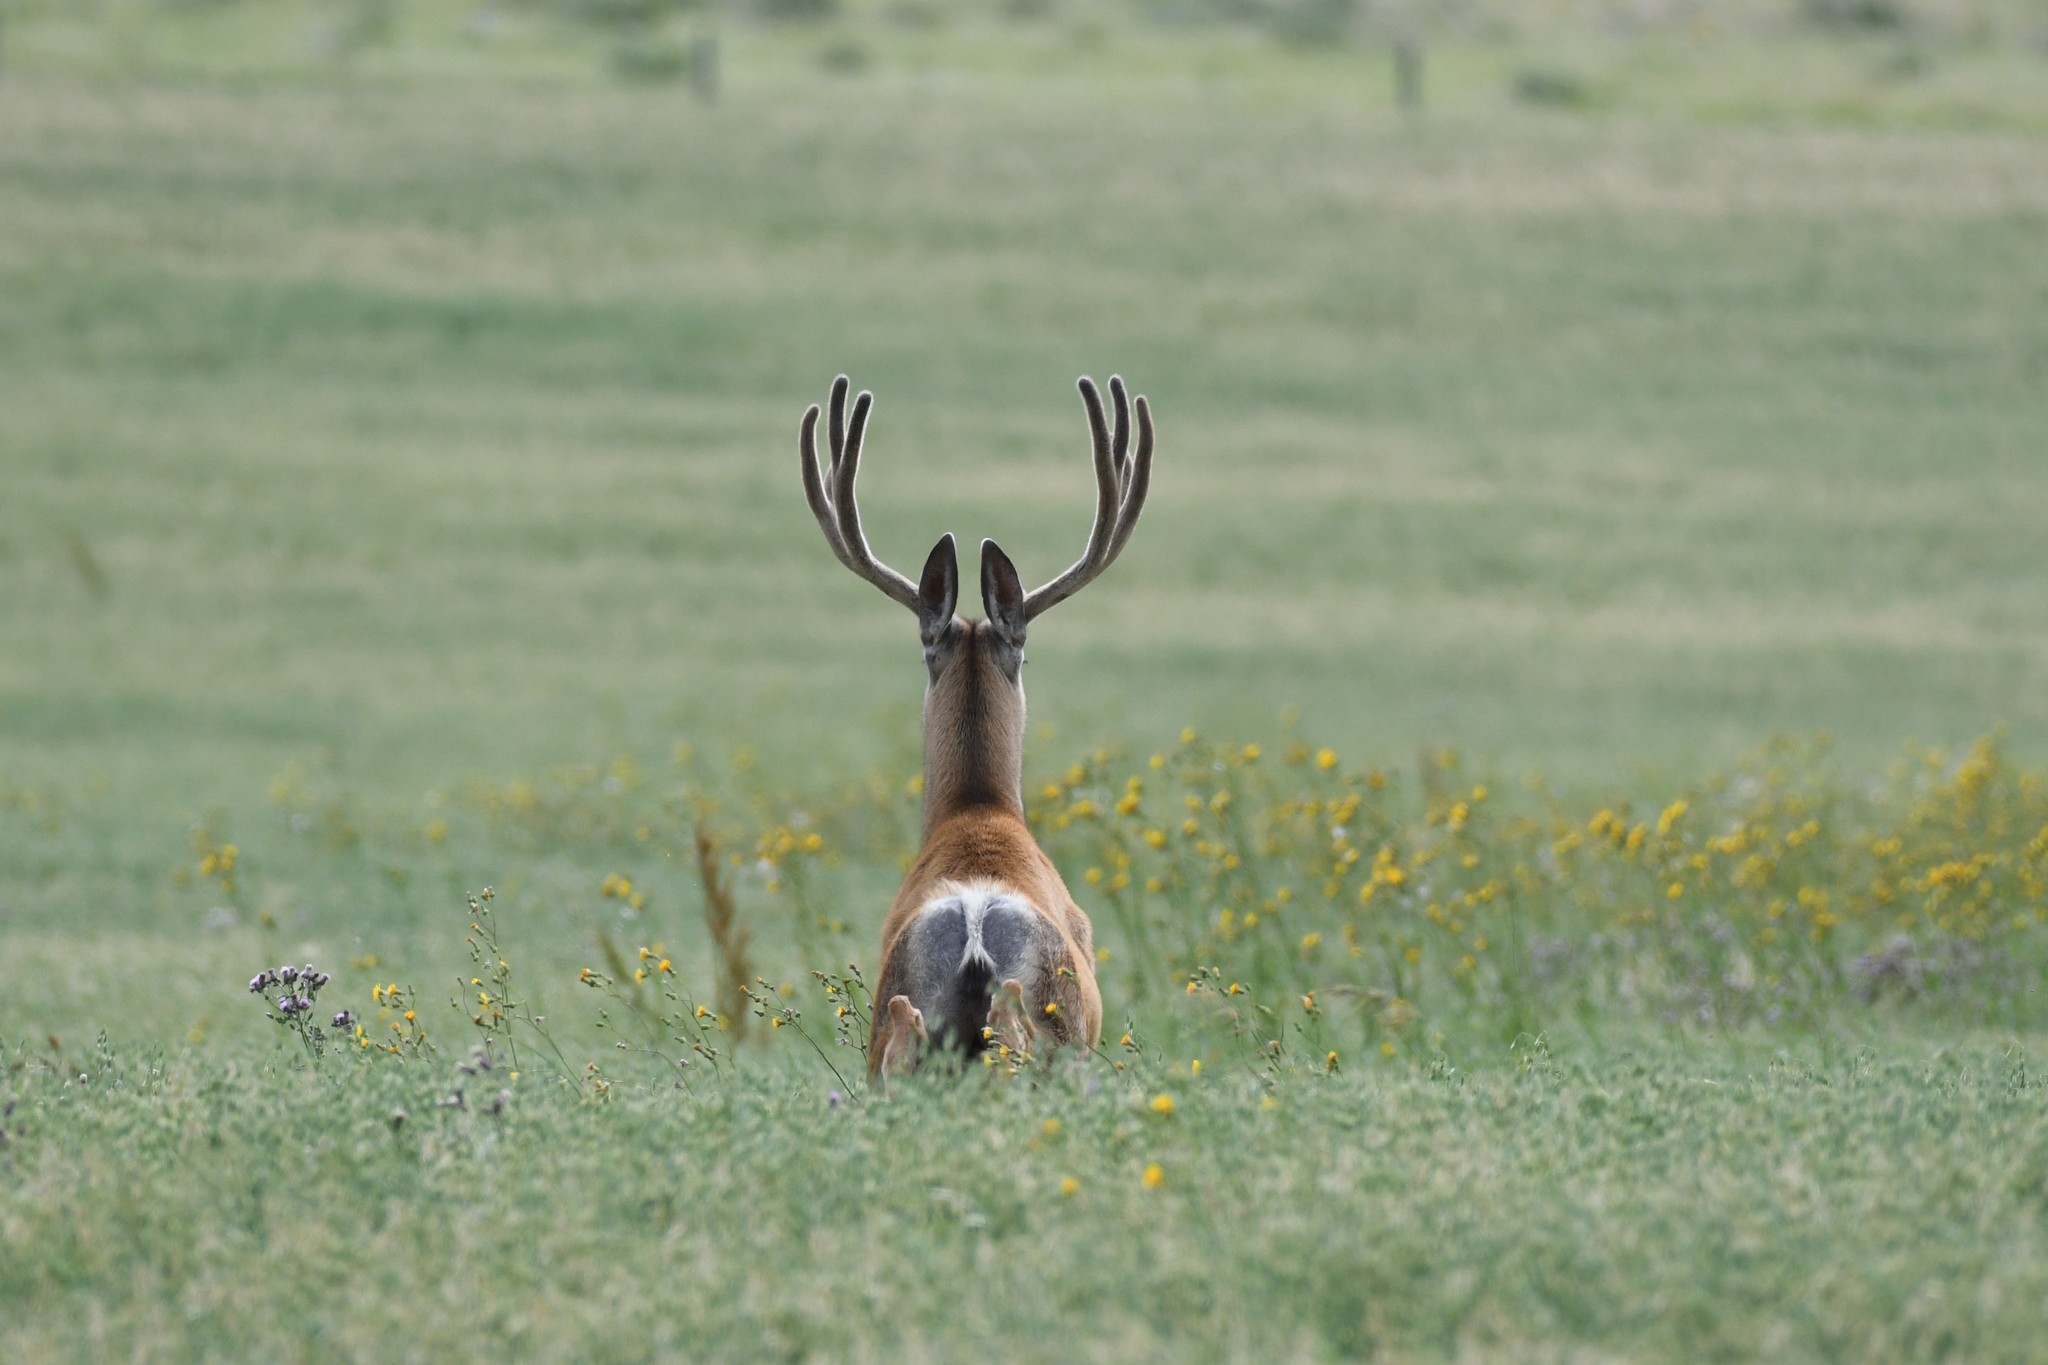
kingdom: Animalia
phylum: Chordata
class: Mammalia
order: Artiodactyla
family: Cervidae
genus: Odocoileus
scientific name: Odocoileus hemionus
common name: Mule deer
